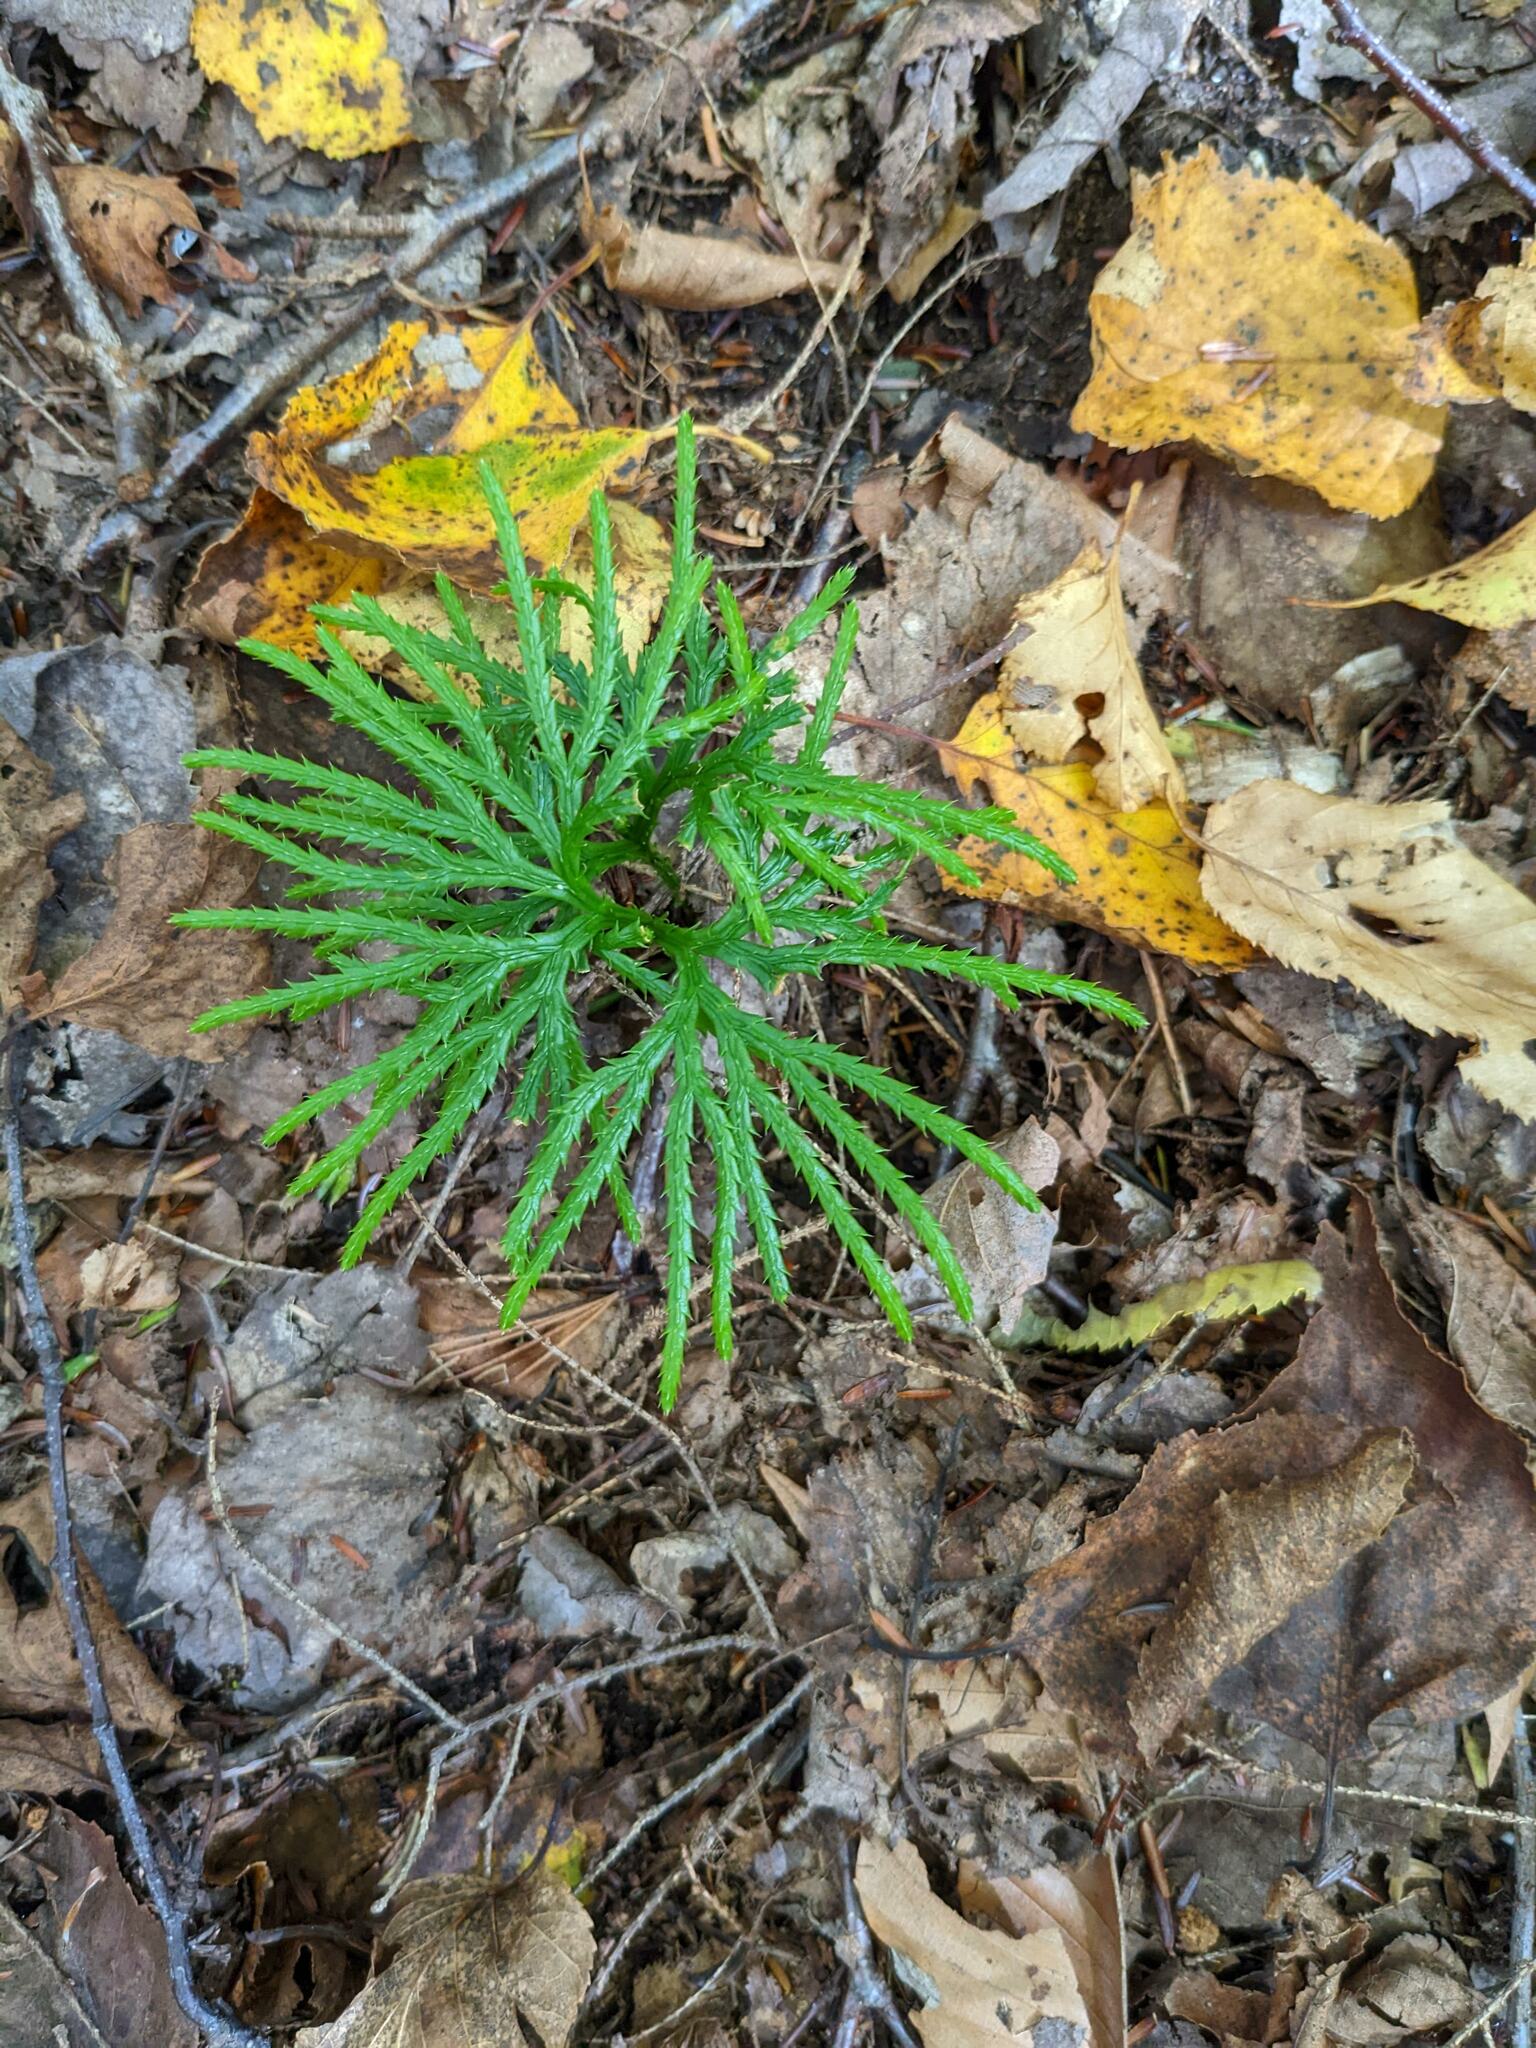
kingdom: Plantae
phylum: Tracheophyta
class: Lycopodiopsida
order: Lycopodiales
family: Lycopodiaceae
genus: Diphasiastrum
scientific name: Diphasiastrum digitatum
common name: Southern running-pine
